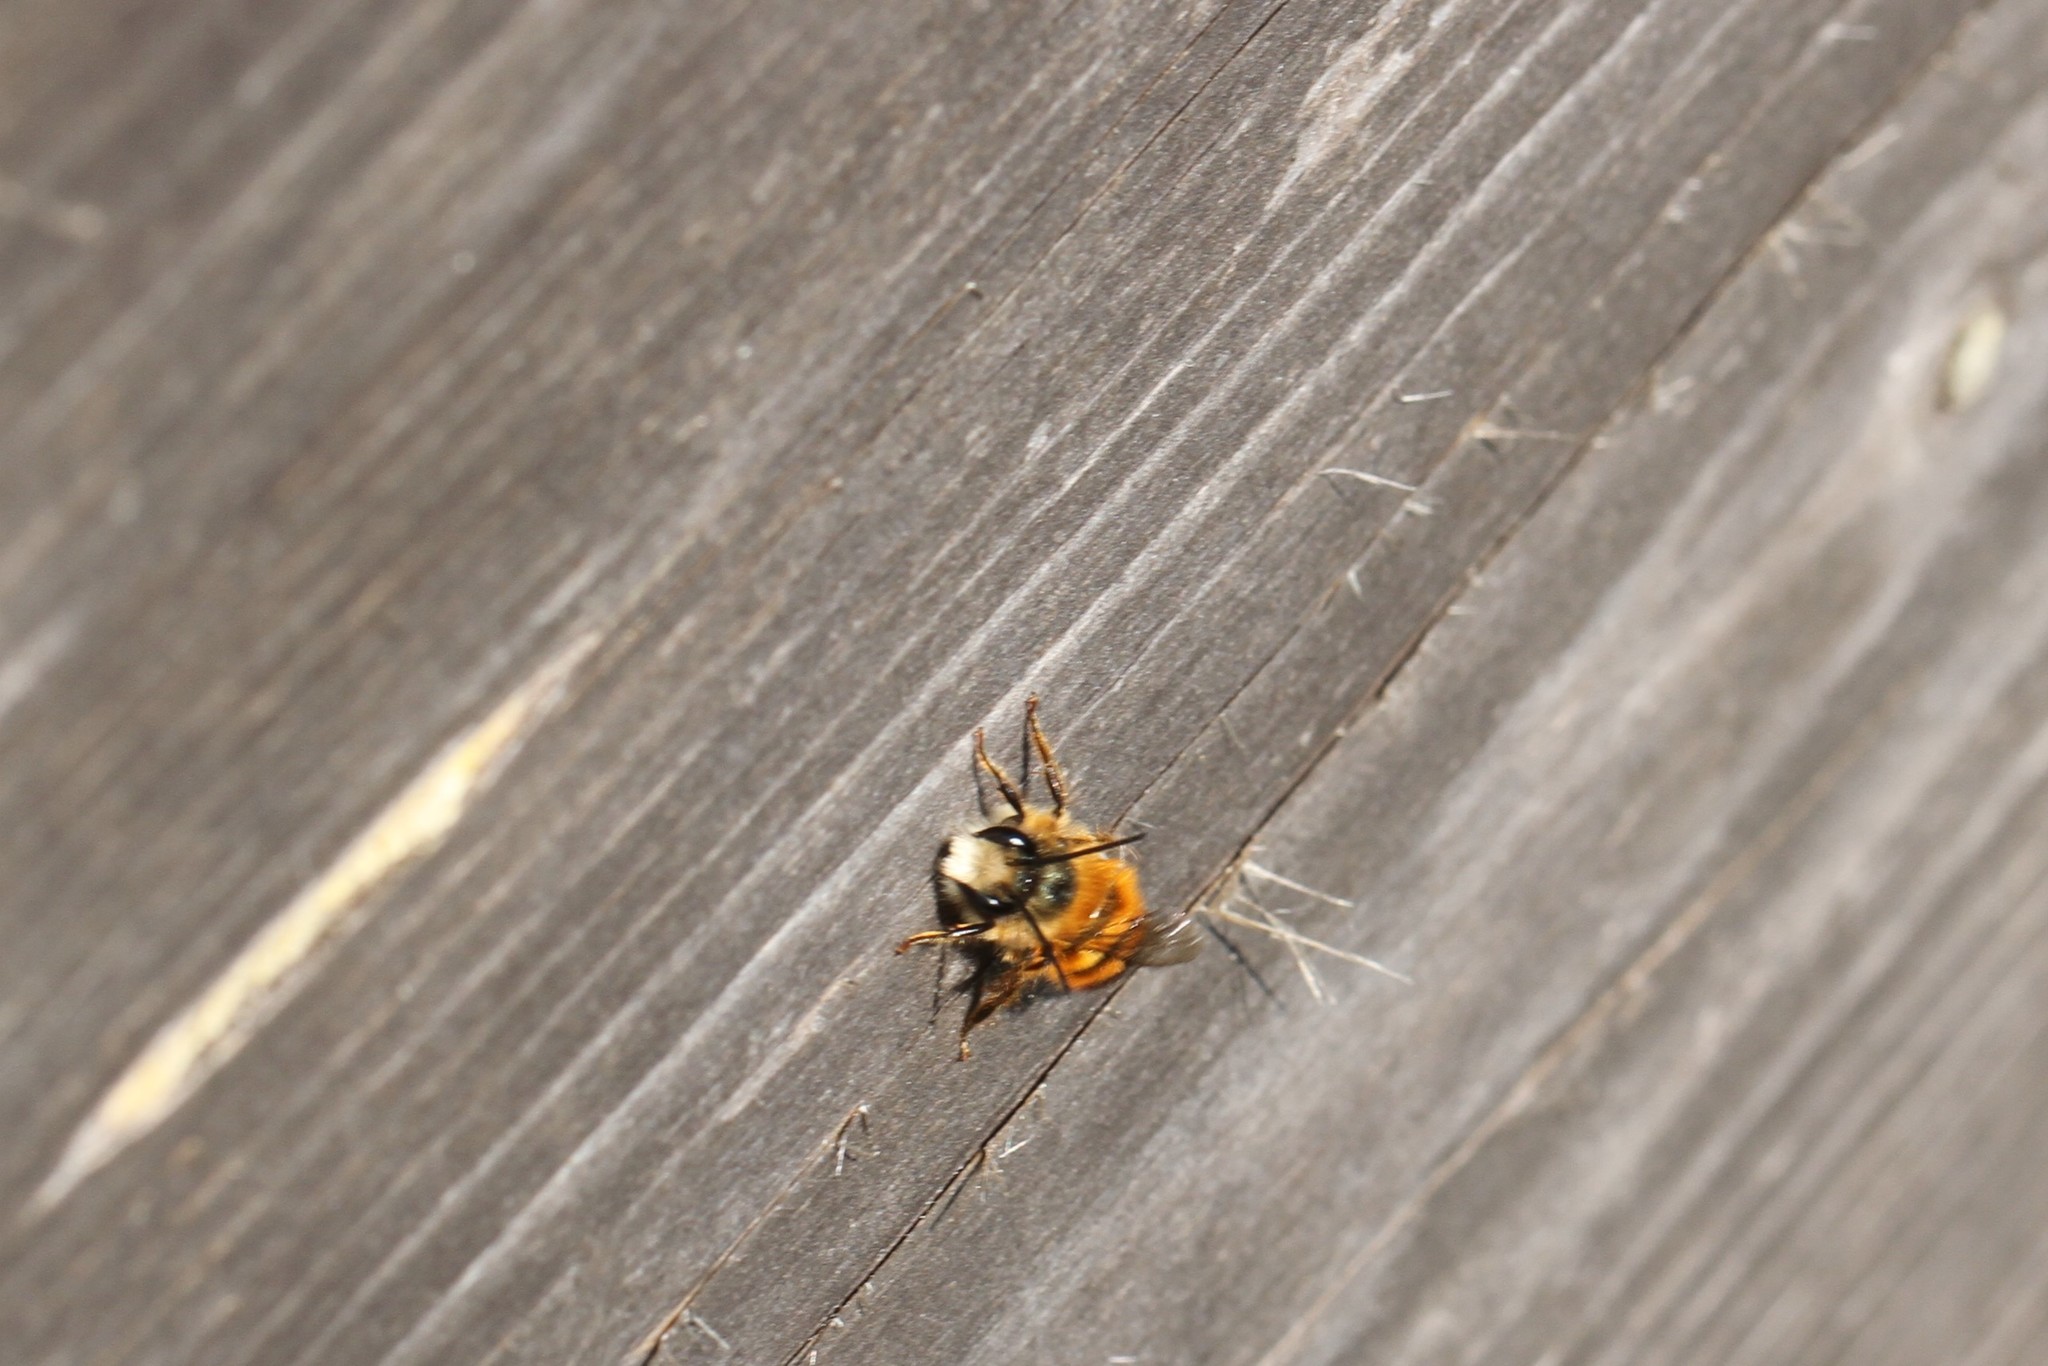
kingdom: Animalia
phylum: Arthropoda
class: Insecta
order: Hymenoptera
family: Megachilidae
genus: Osmia
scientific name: Osmia bicornis
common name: Red mason bee
